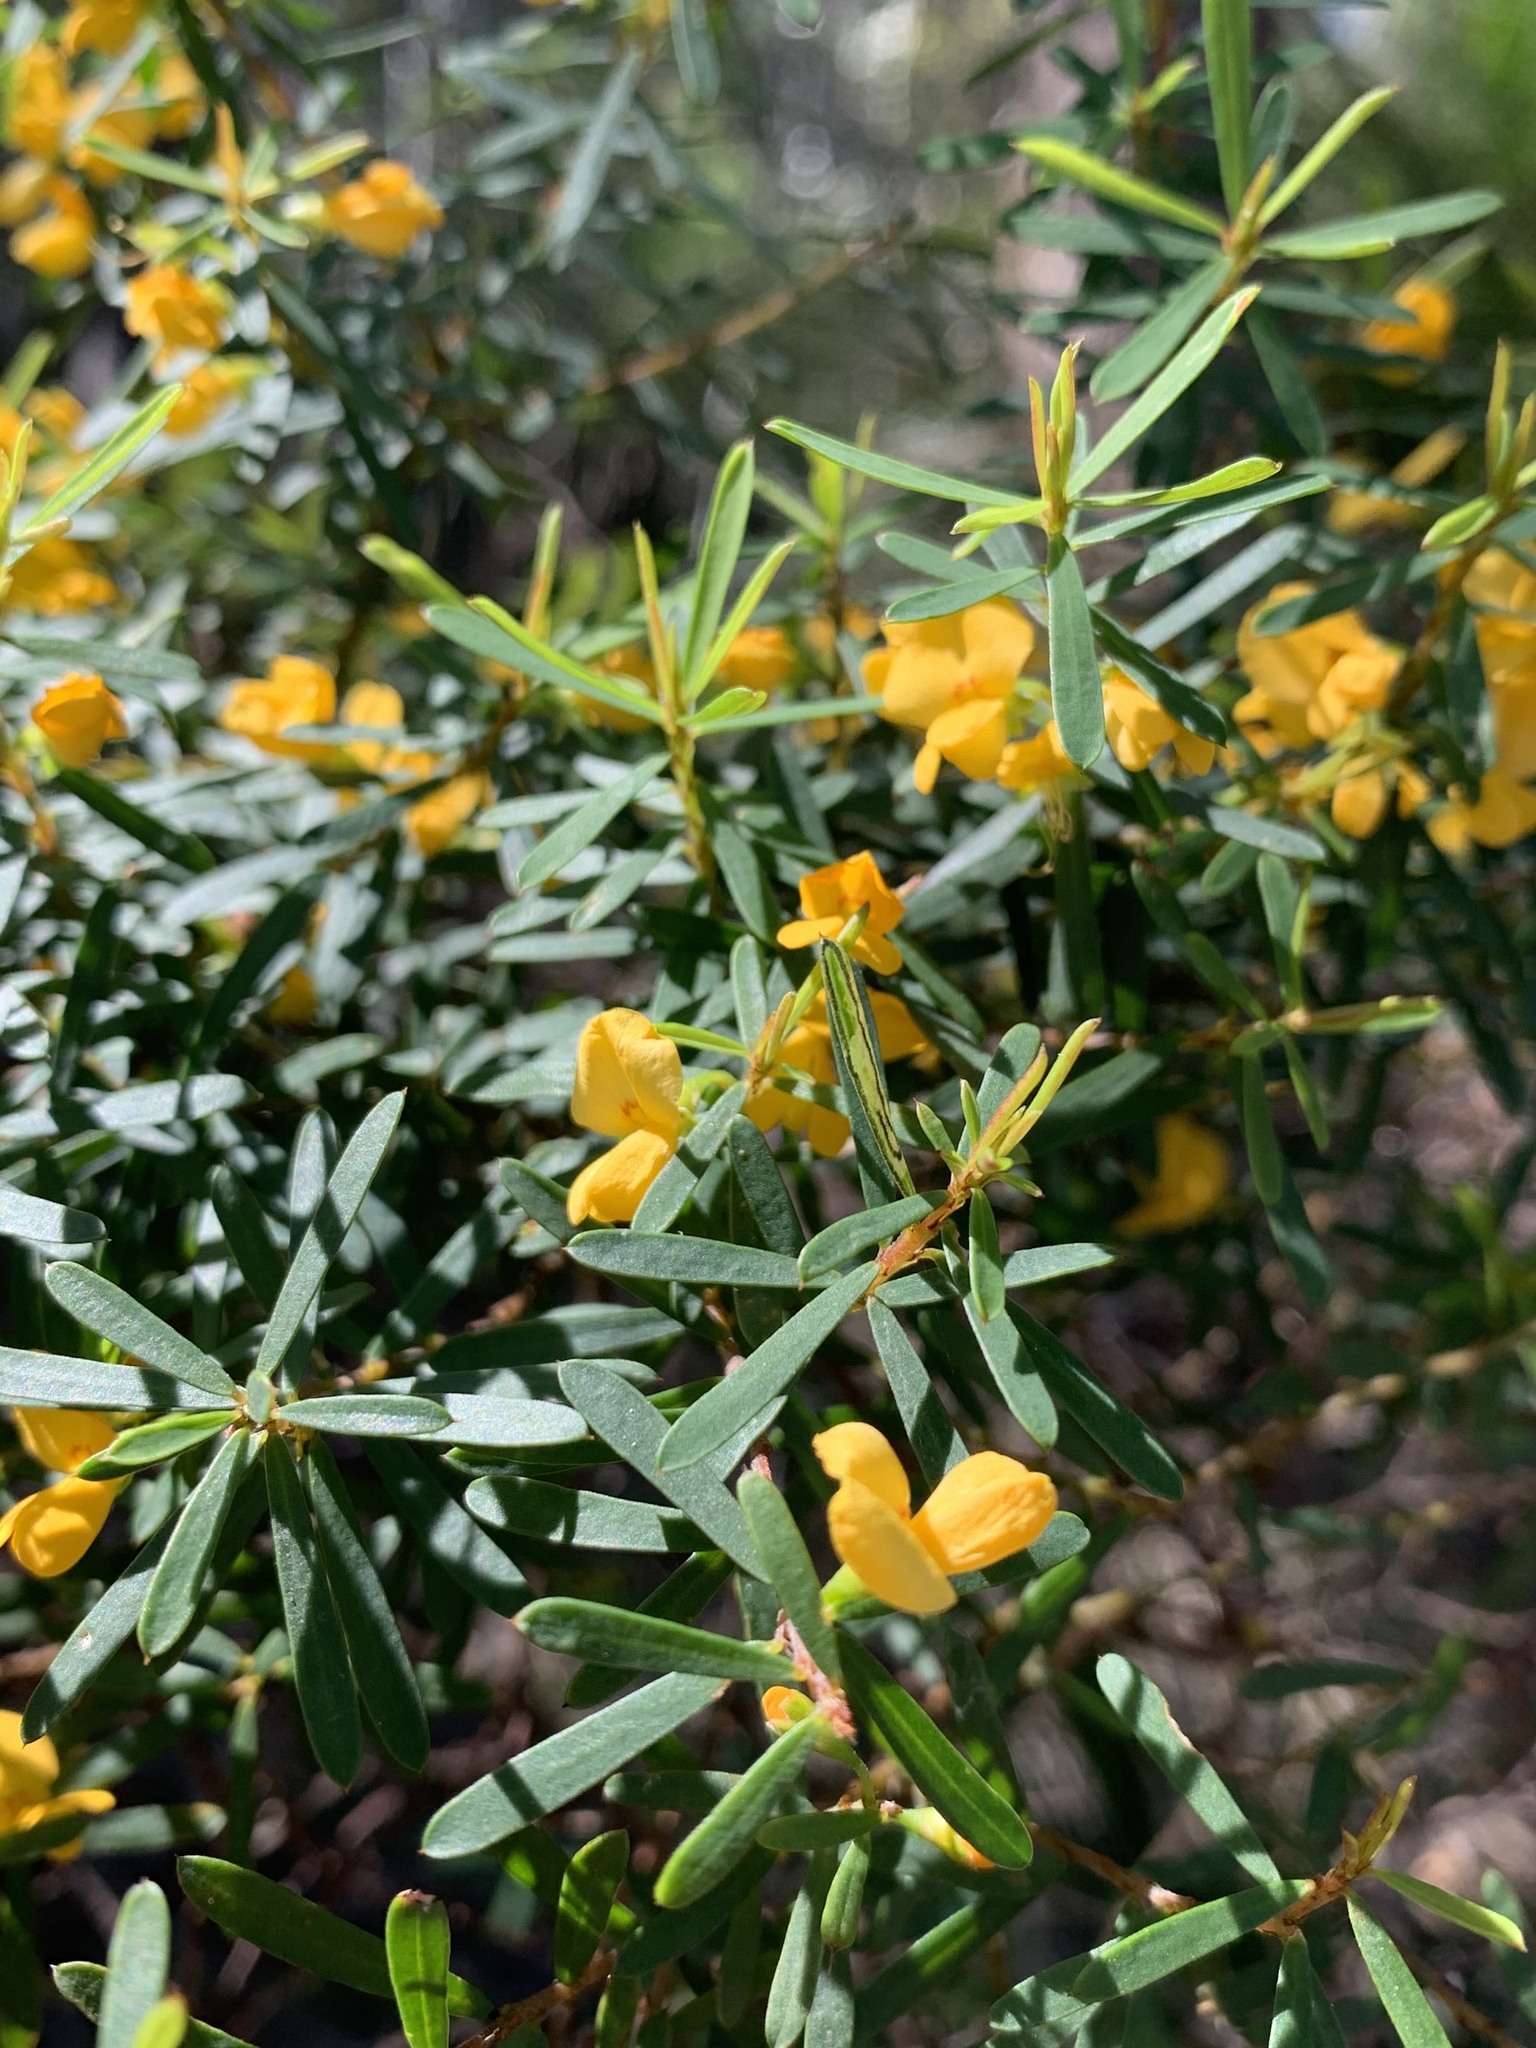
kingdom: Plantae
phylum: Tracheophyta
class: Magnoliopsida
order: Fabales
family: Fabaceae
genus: Pultenaea
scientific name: Pultenaea flexilis
